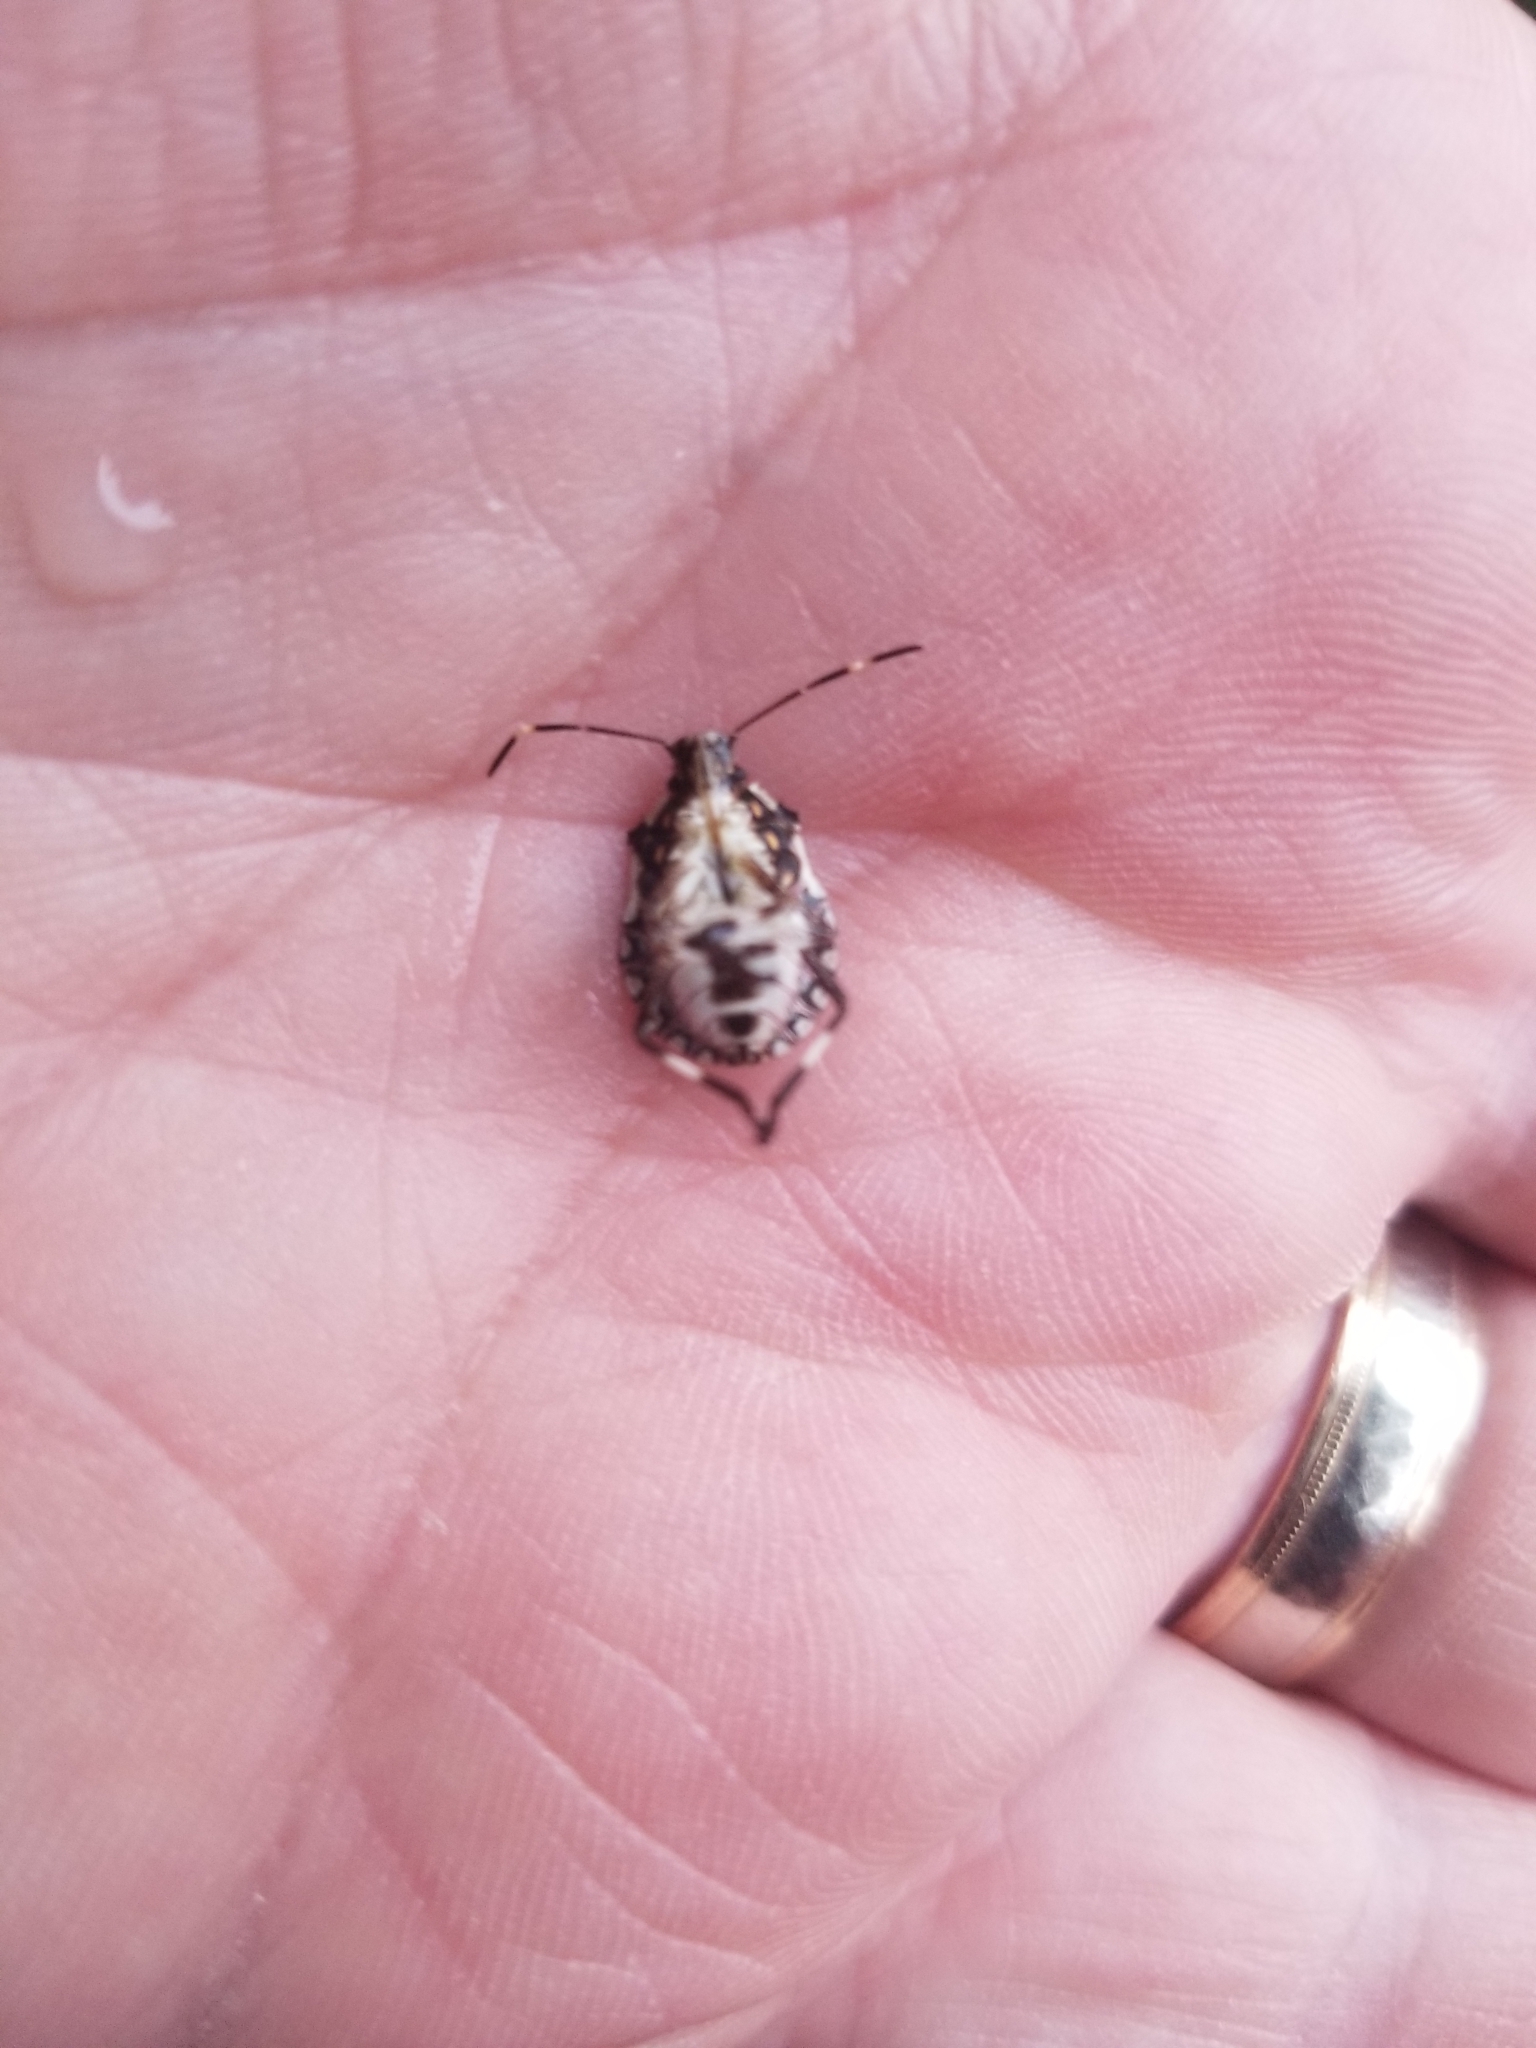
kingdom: Animalia
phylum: Arthropoda
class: Insecta
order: Hemiptera
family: Pentatomidae
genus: Halyomorpha
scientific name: Halyomorpha halys
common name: Brown marmorated stink bug
